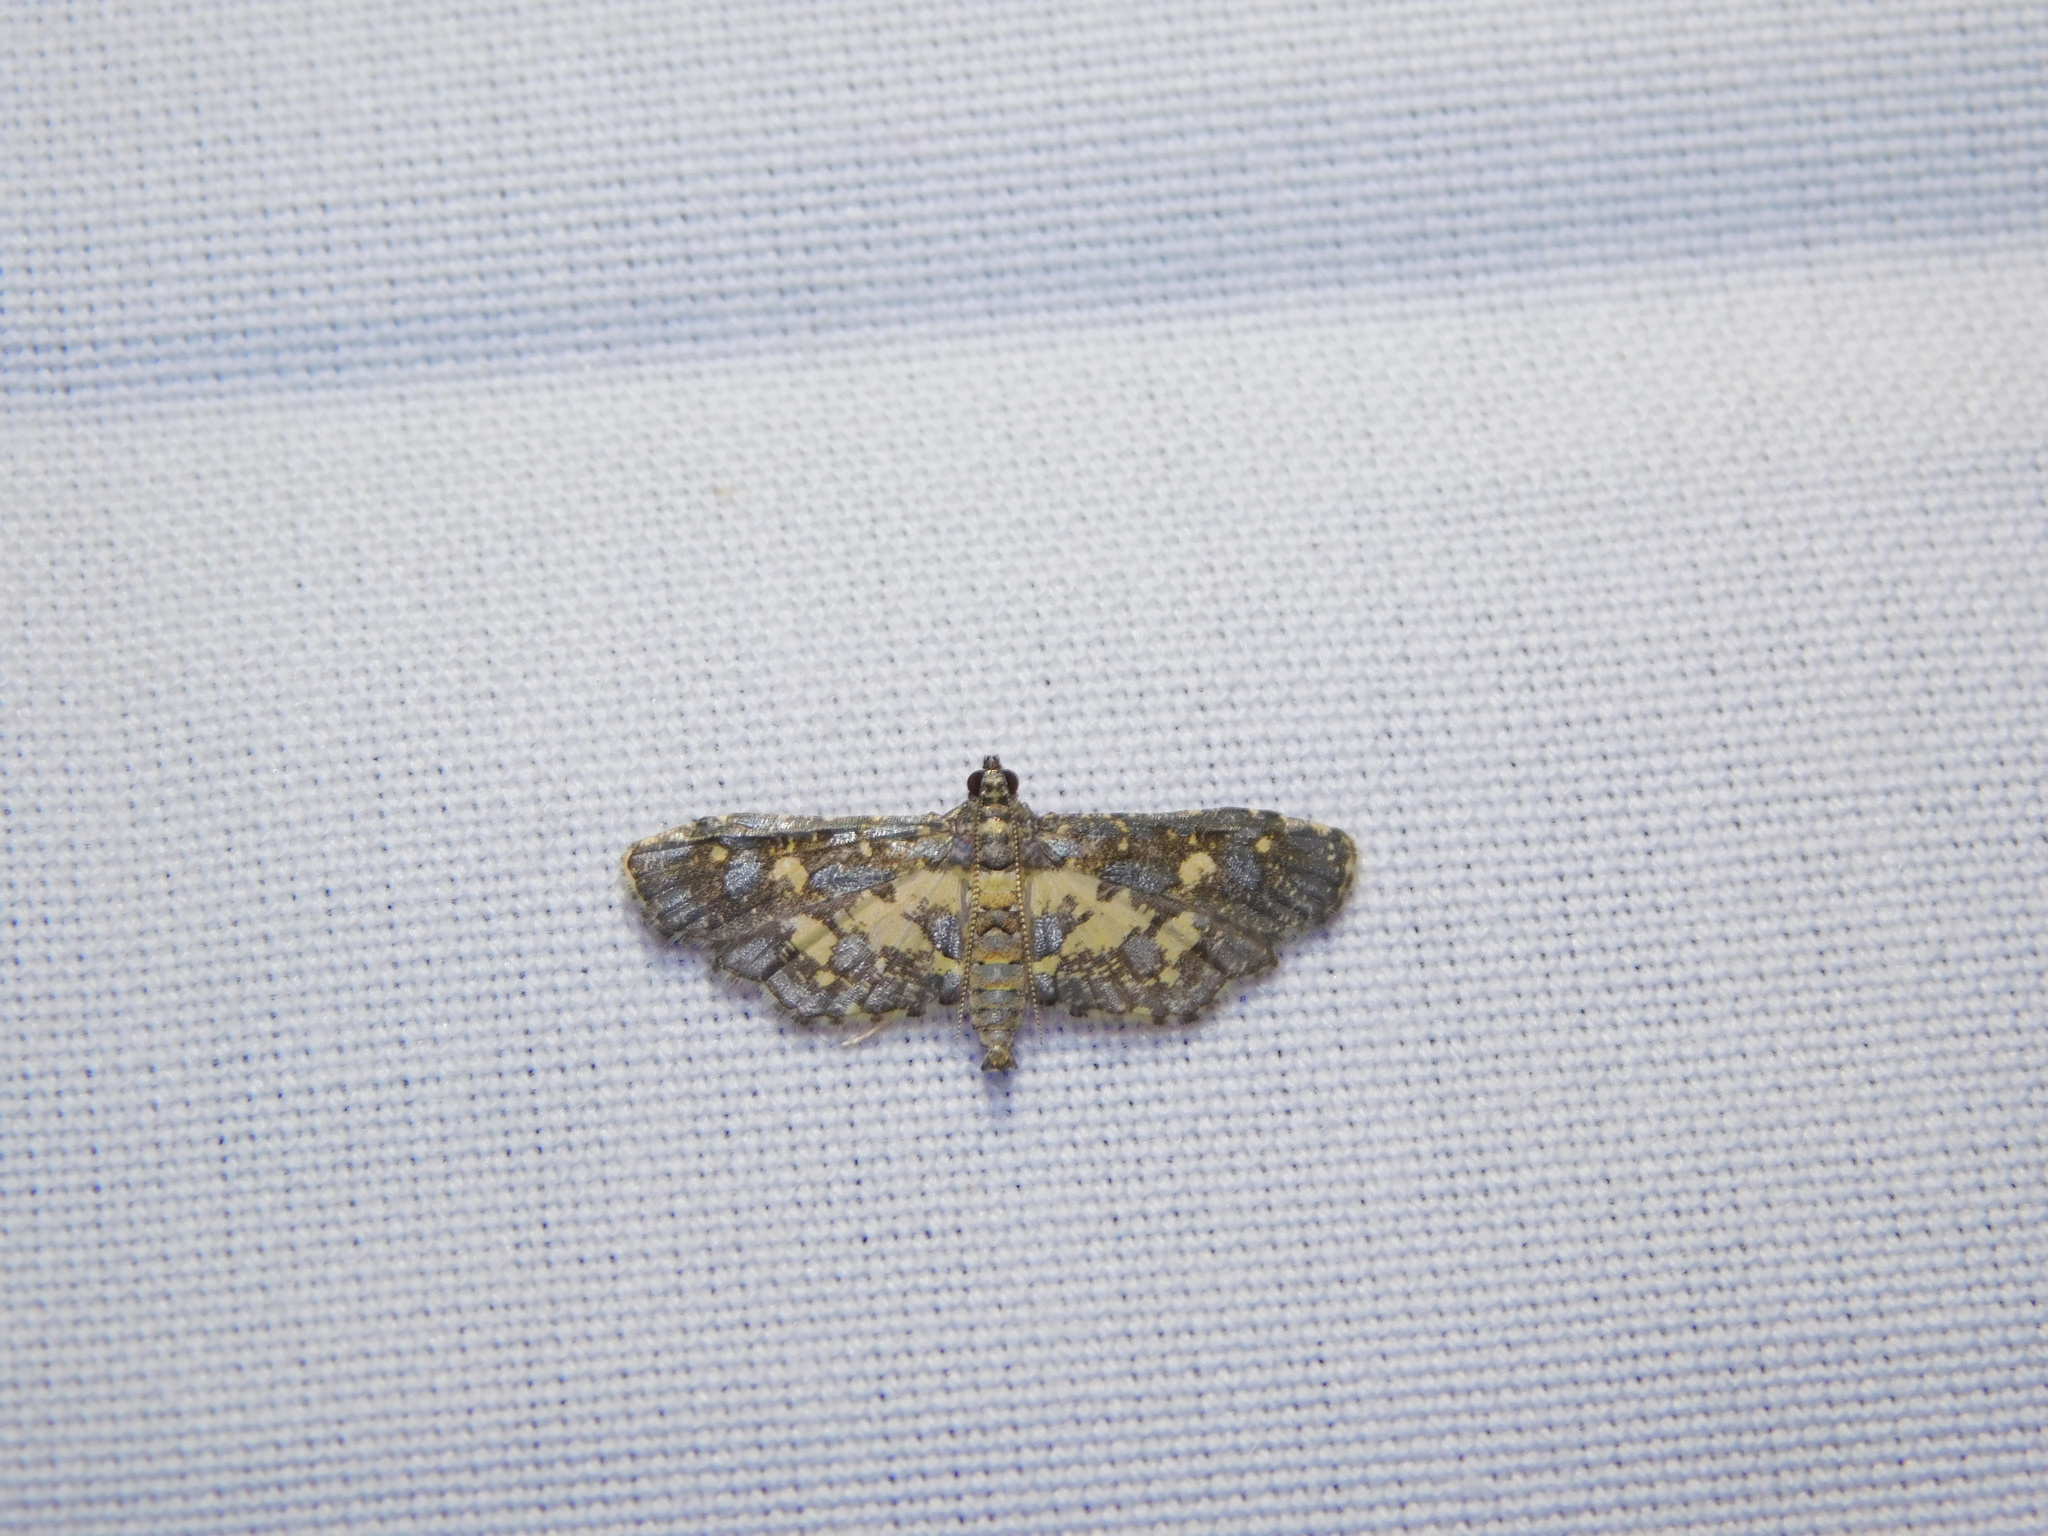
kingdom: Animalia
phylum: Arthropoda
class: Insecta
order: Lepidoptera
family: Crambidae
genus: Eurrhyparodes
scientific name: Eurrhyparodes bracteolalis
